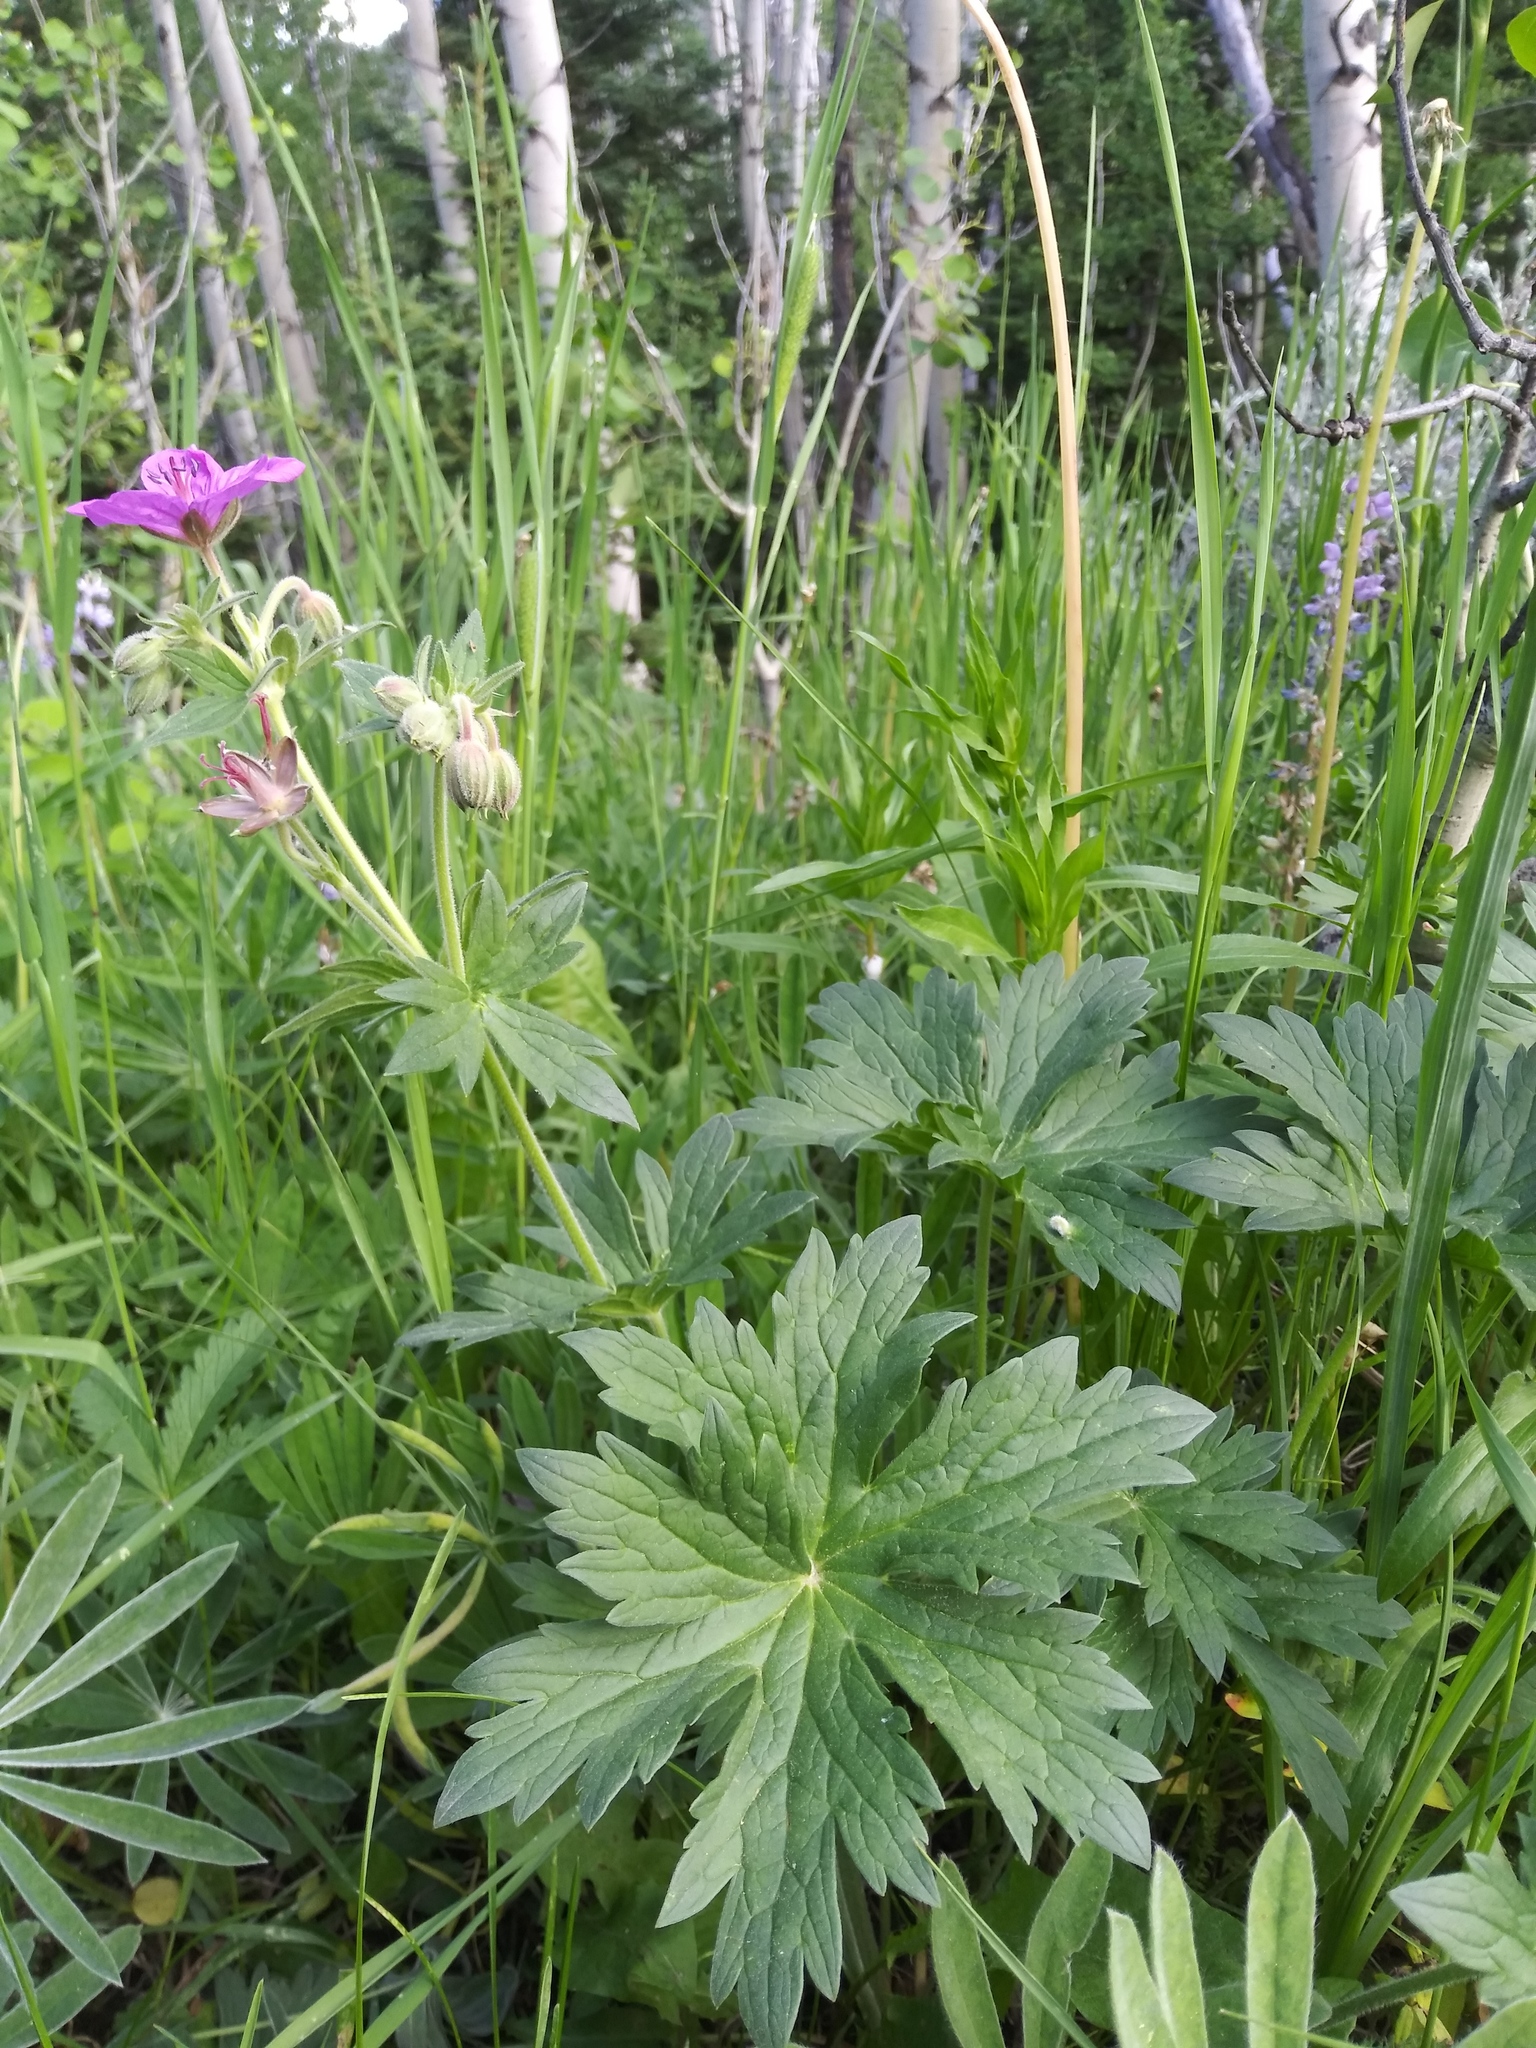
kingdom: Plantae
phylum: Tracheophyta
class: Magnoliopsida
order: Geraniales
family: Geraniaceae
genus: Geranium
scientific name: Geranium viscosissimum
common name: Purple geranium
